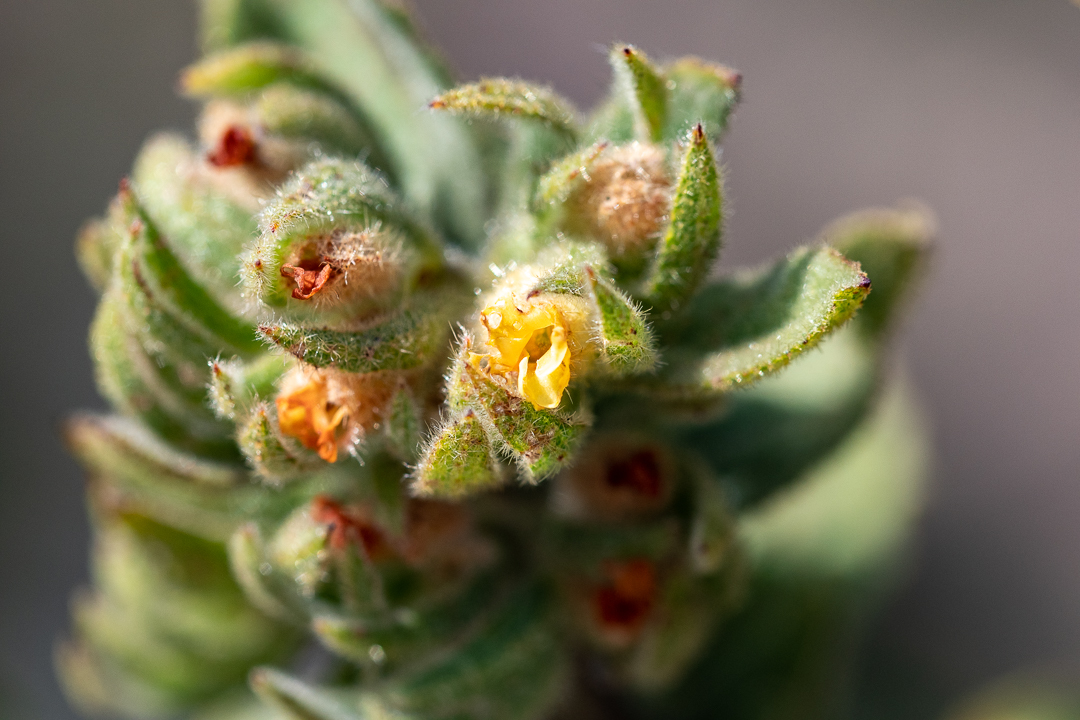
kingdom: Plantae
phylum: Tracheophyta
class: Magnoliopsida
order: Malvales
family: Malvaceae
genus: Hermannia
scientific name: Hermannia salviifolia
